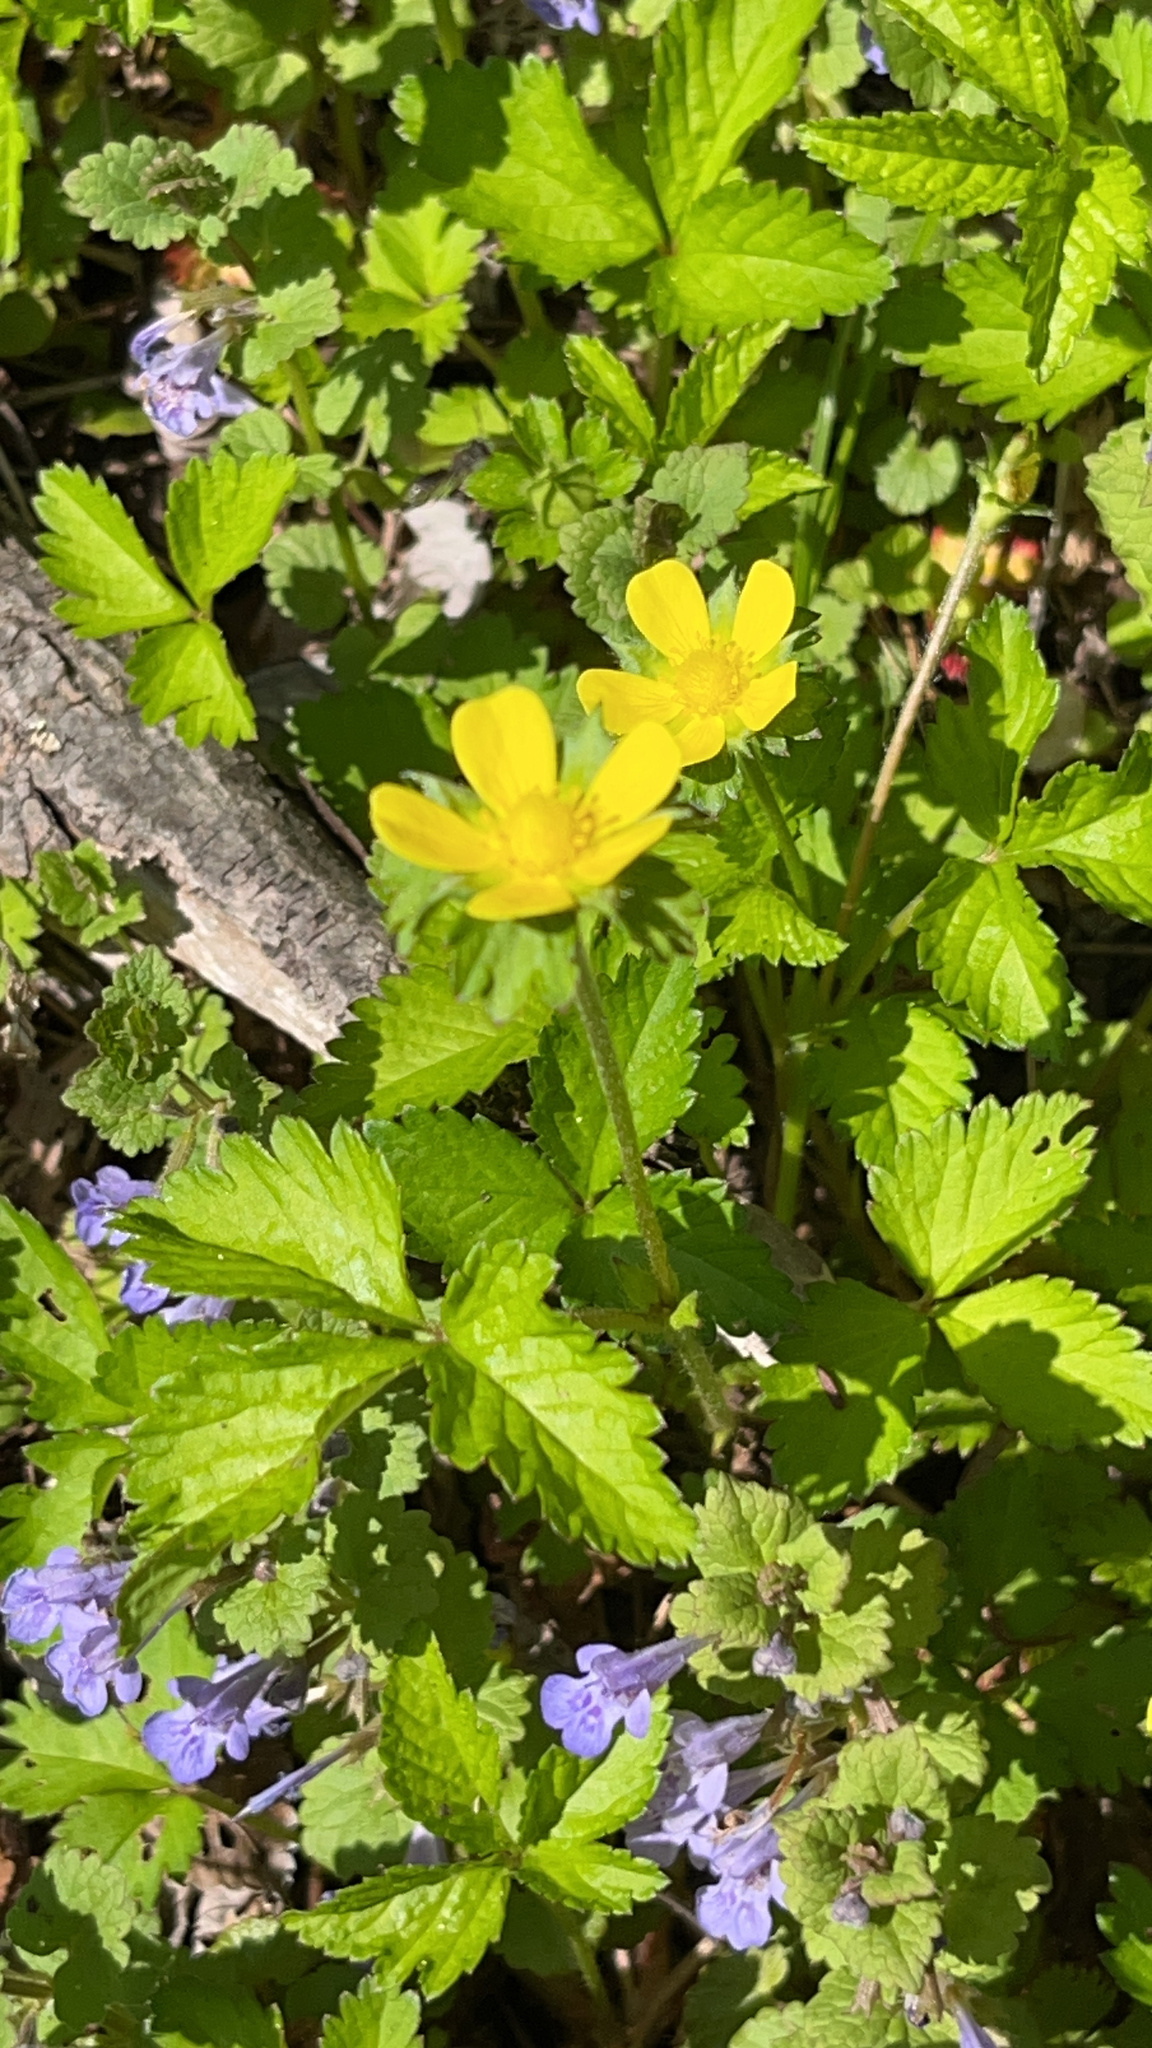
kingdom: Plantae
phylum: Tracheophyta
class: Magnoliopsida
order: Rosales
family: Rosaceae
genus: Potentilla
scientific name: Potentilla indica
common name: Yellow-flowered strawberry
